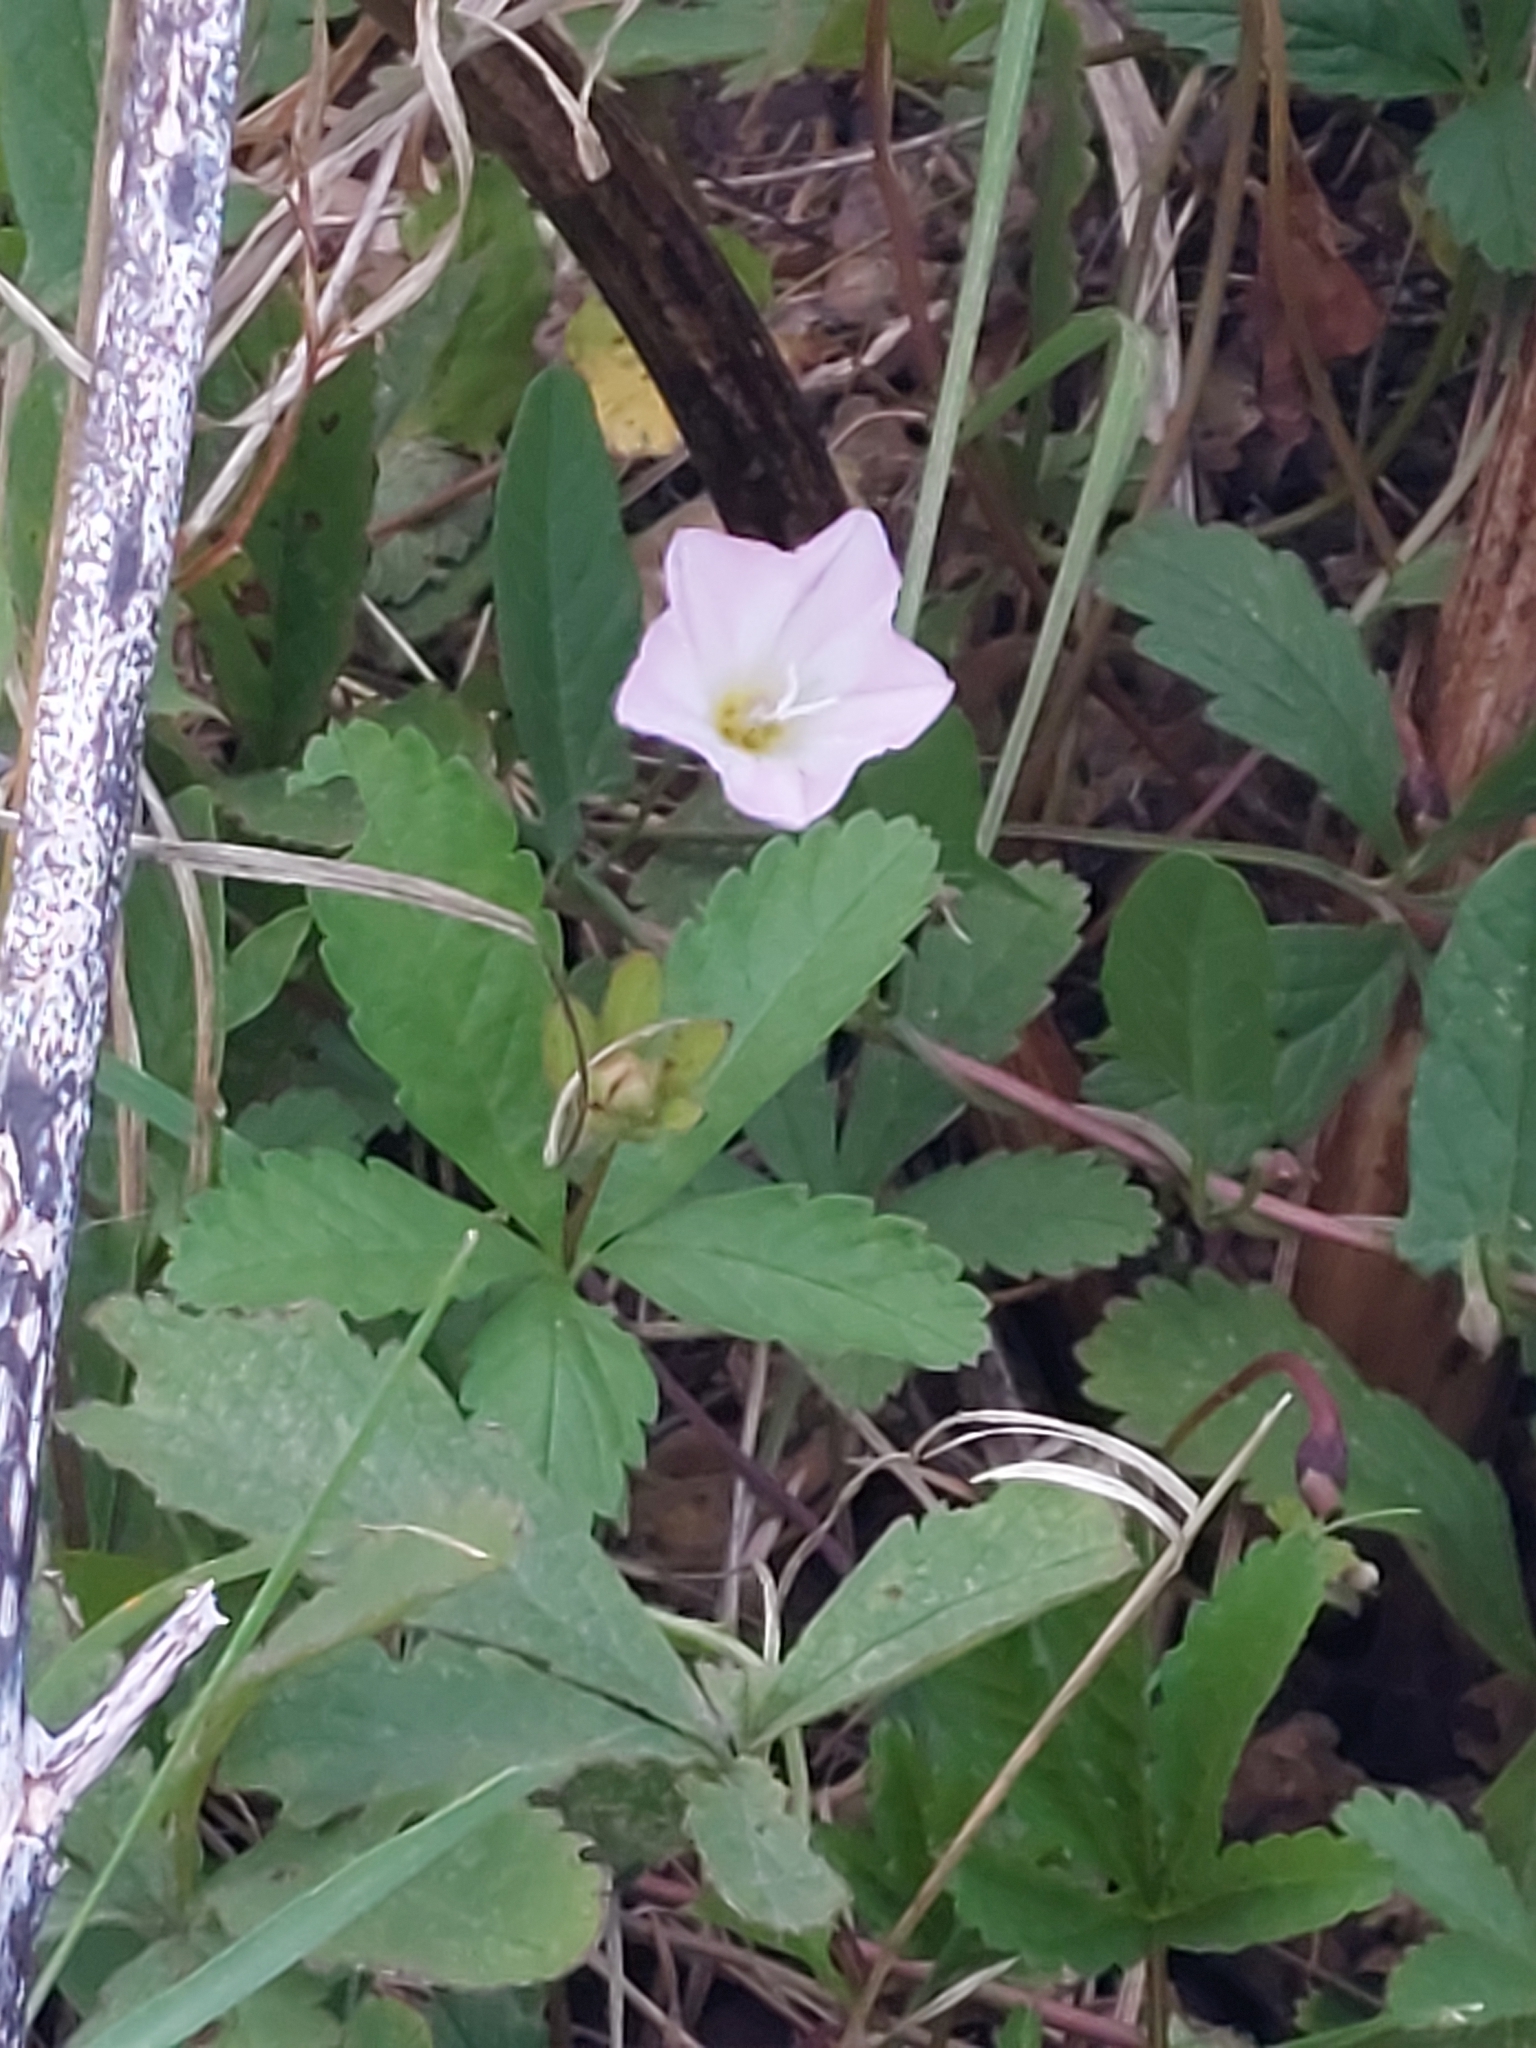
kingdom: Plantae
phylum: Tracheophyta
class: Magnoliopsida
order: Solanales
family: Convolvulaceae
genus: Convolvulus
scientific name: Convolvulus arvensis
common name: Field bindweed
